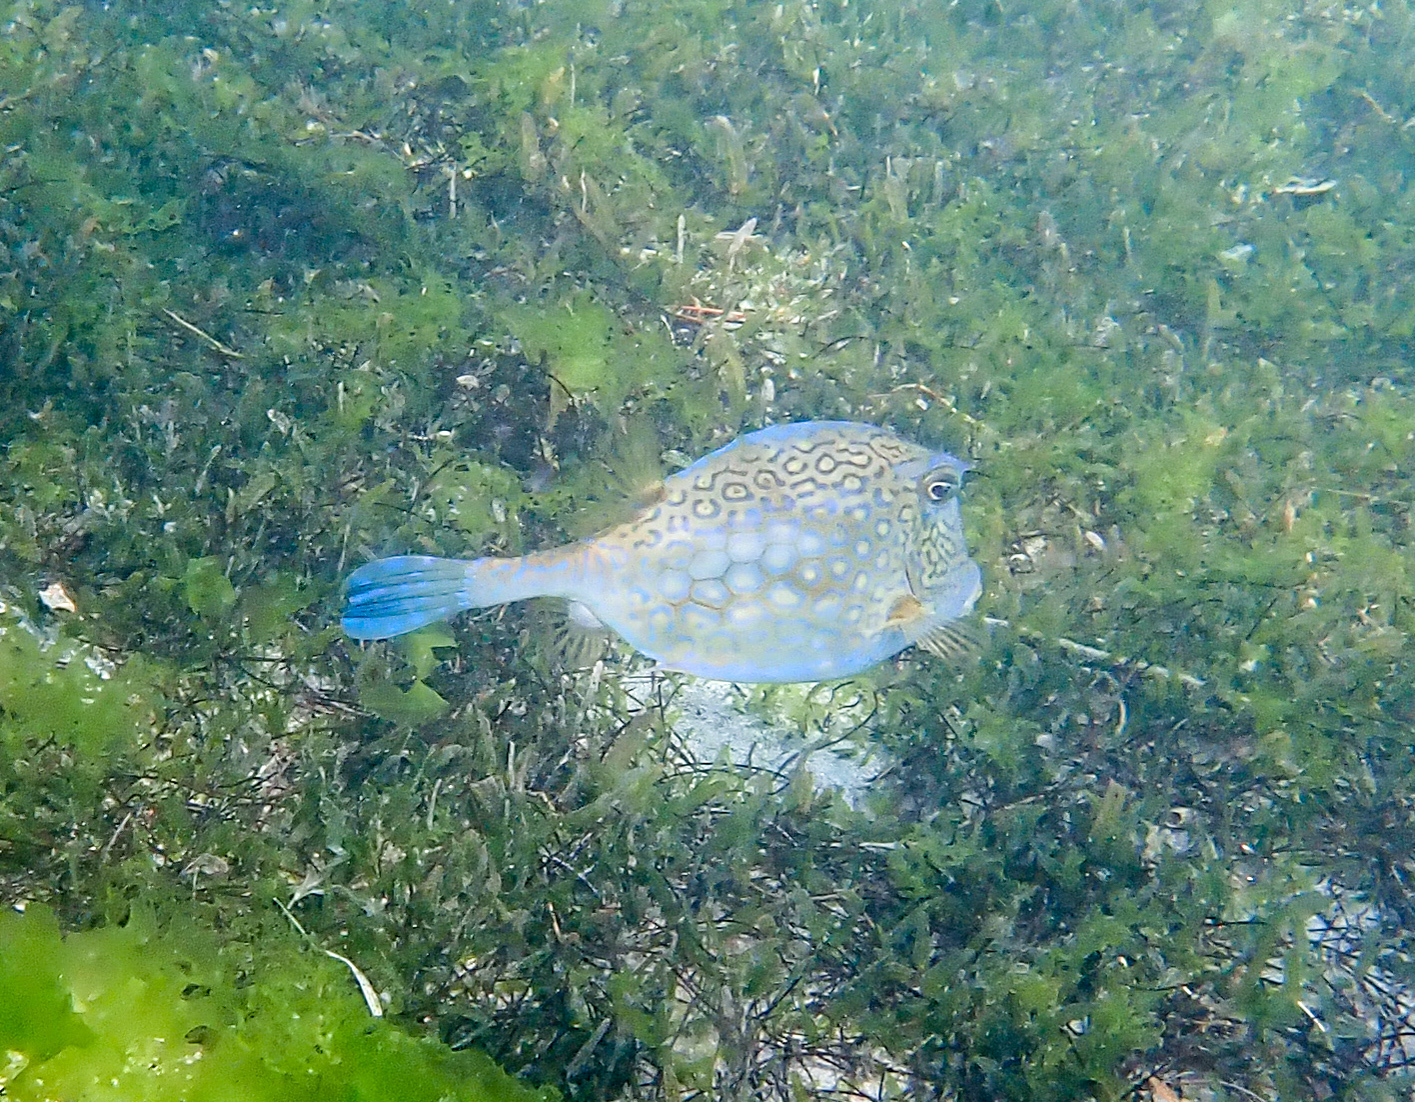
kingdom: Animalia
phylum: Chordata
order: Tetraodontiformes
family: Ostraciidae
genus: Acanthostracion
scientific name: Acanthostracion polygonius
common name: Honeycomb cowfish
